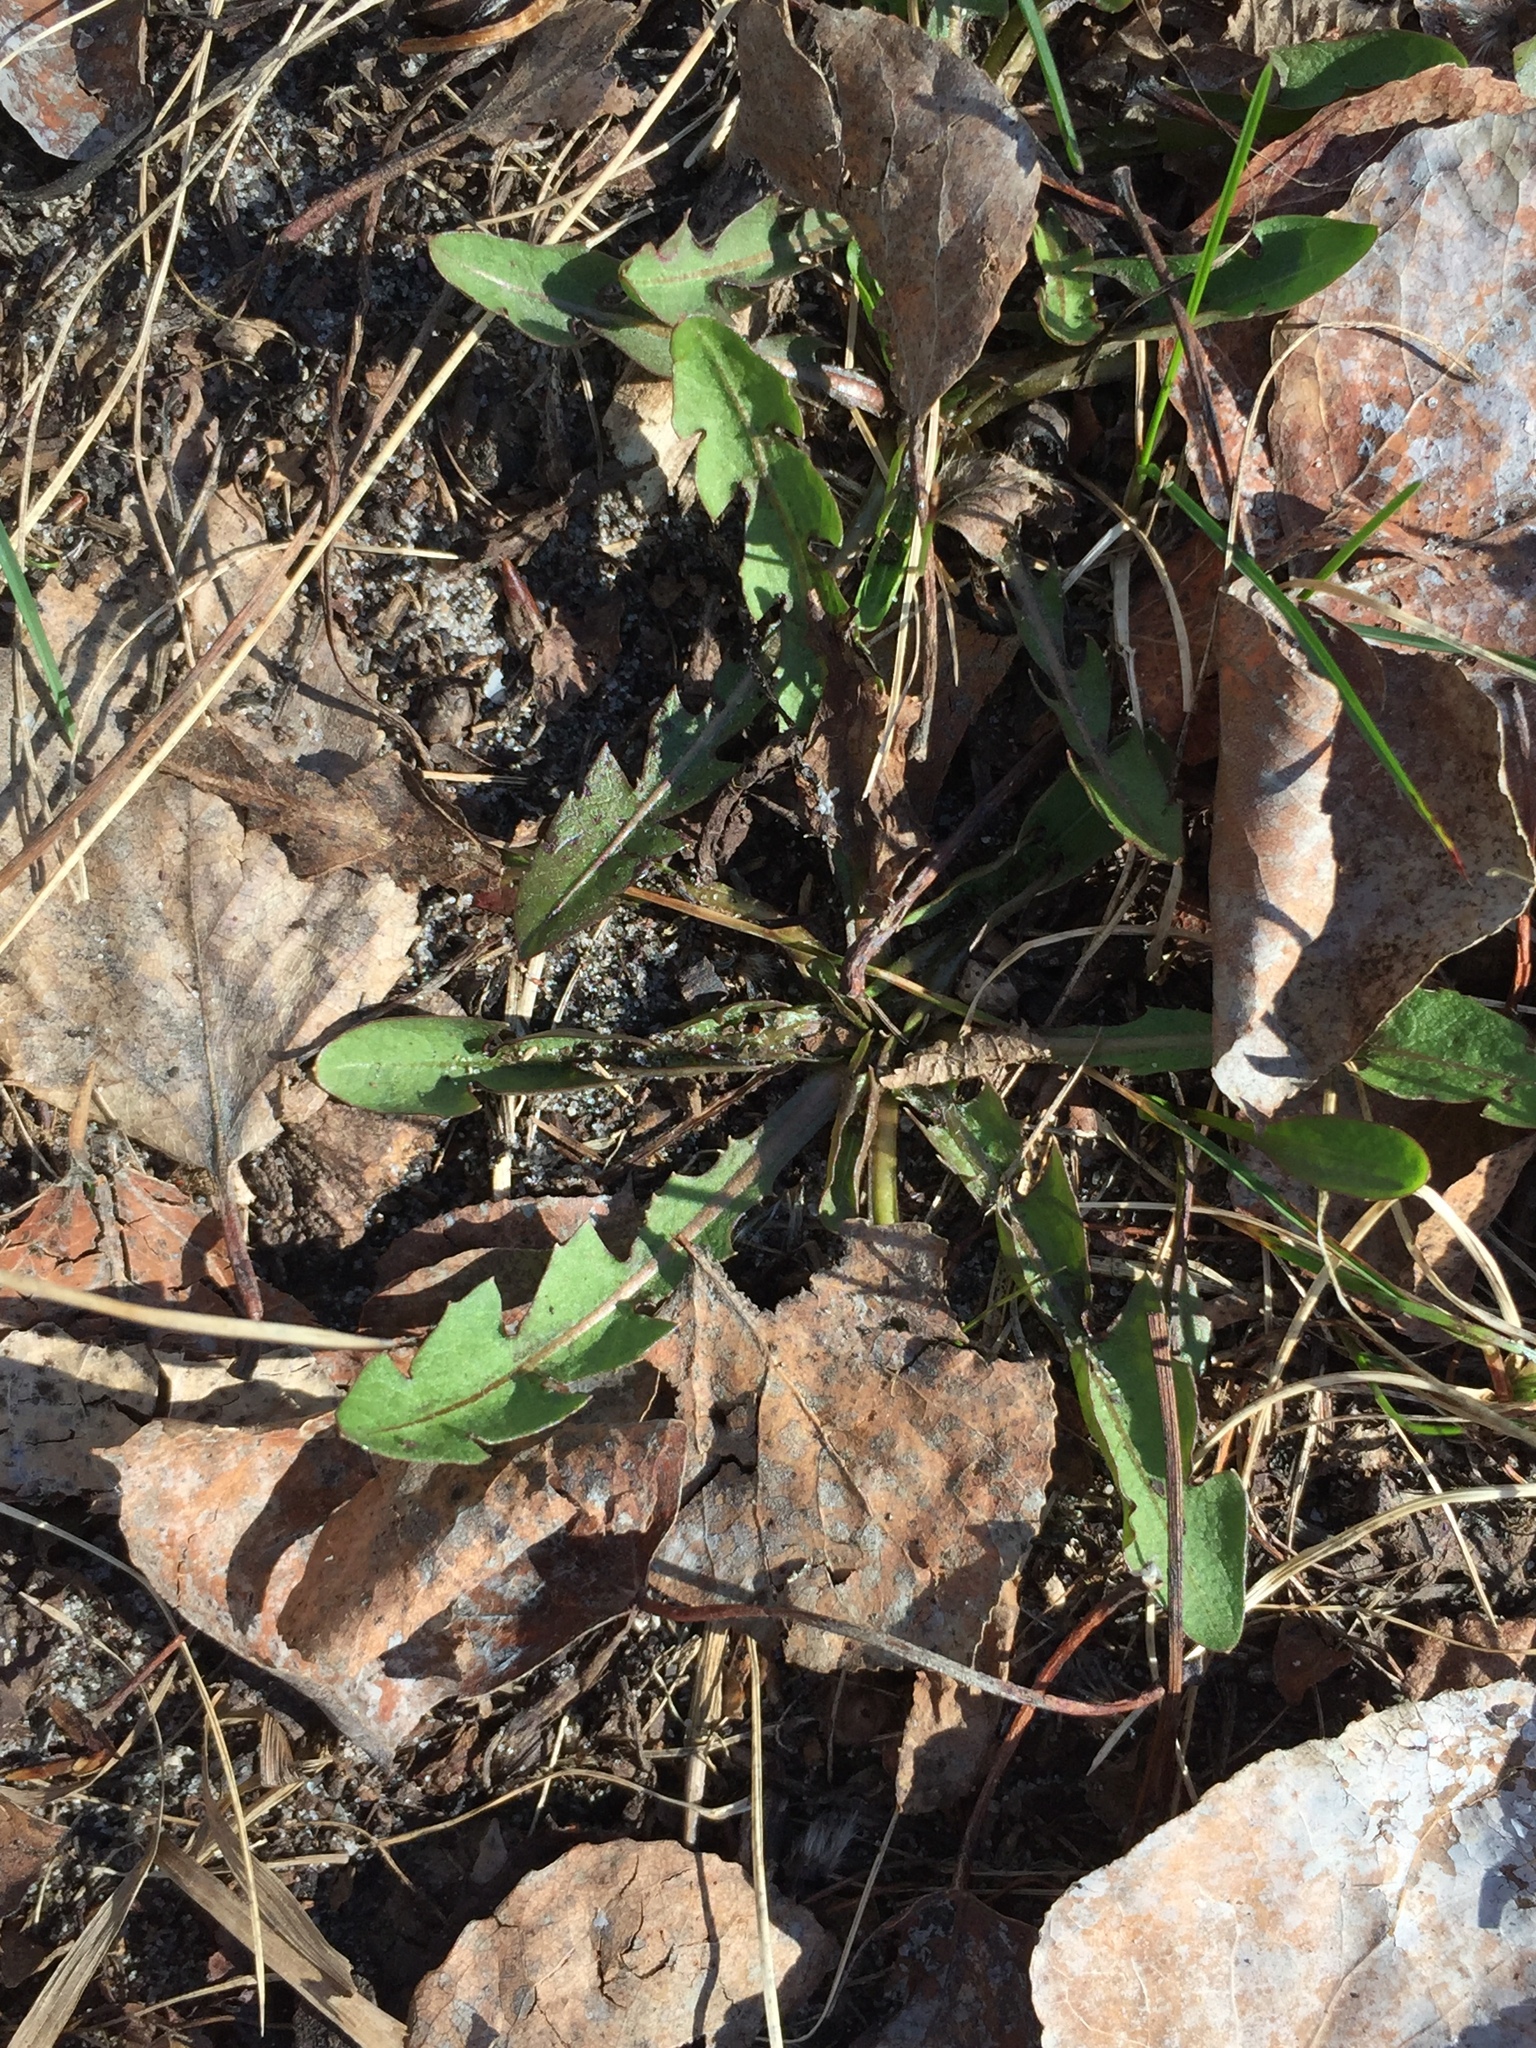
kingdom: Plantae
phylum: Tracheophyta
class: Magnoliopsida
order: Asterales
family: Asteraceae
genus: Taraxacum
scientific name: Taraxacum officinale
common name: Common dandelion
